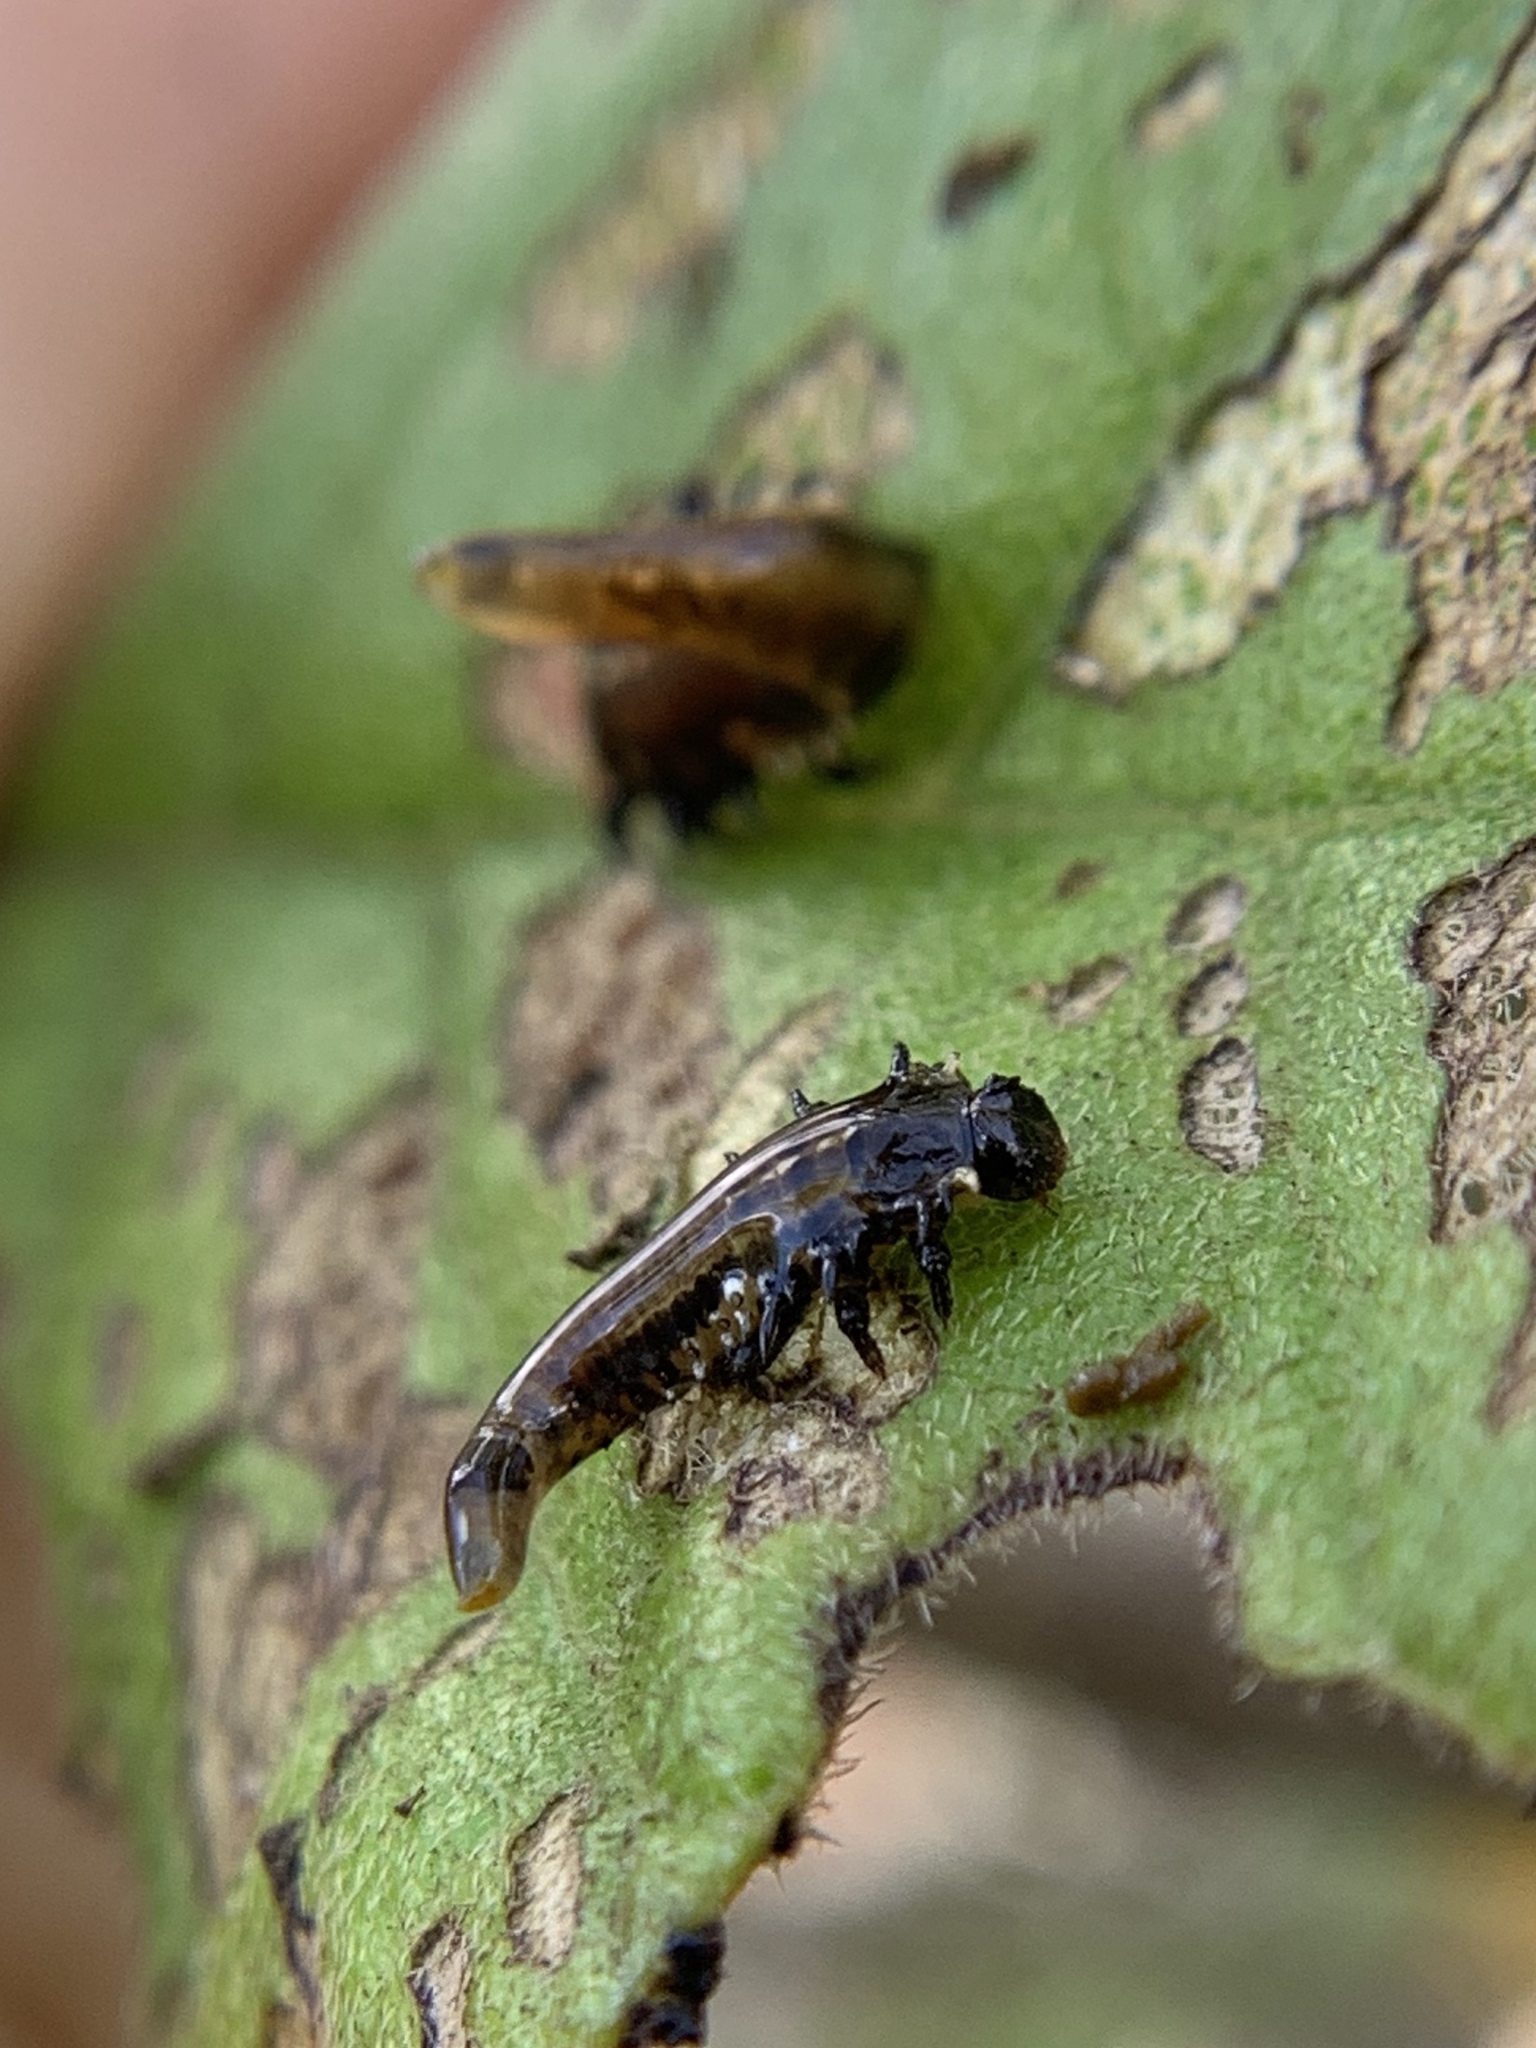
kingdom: Animalia
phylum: Arthropoda
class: Insecta
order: Coleoptera
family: Chrysomelidae
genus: Eurypepla
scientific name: Eurypepla calochroma
